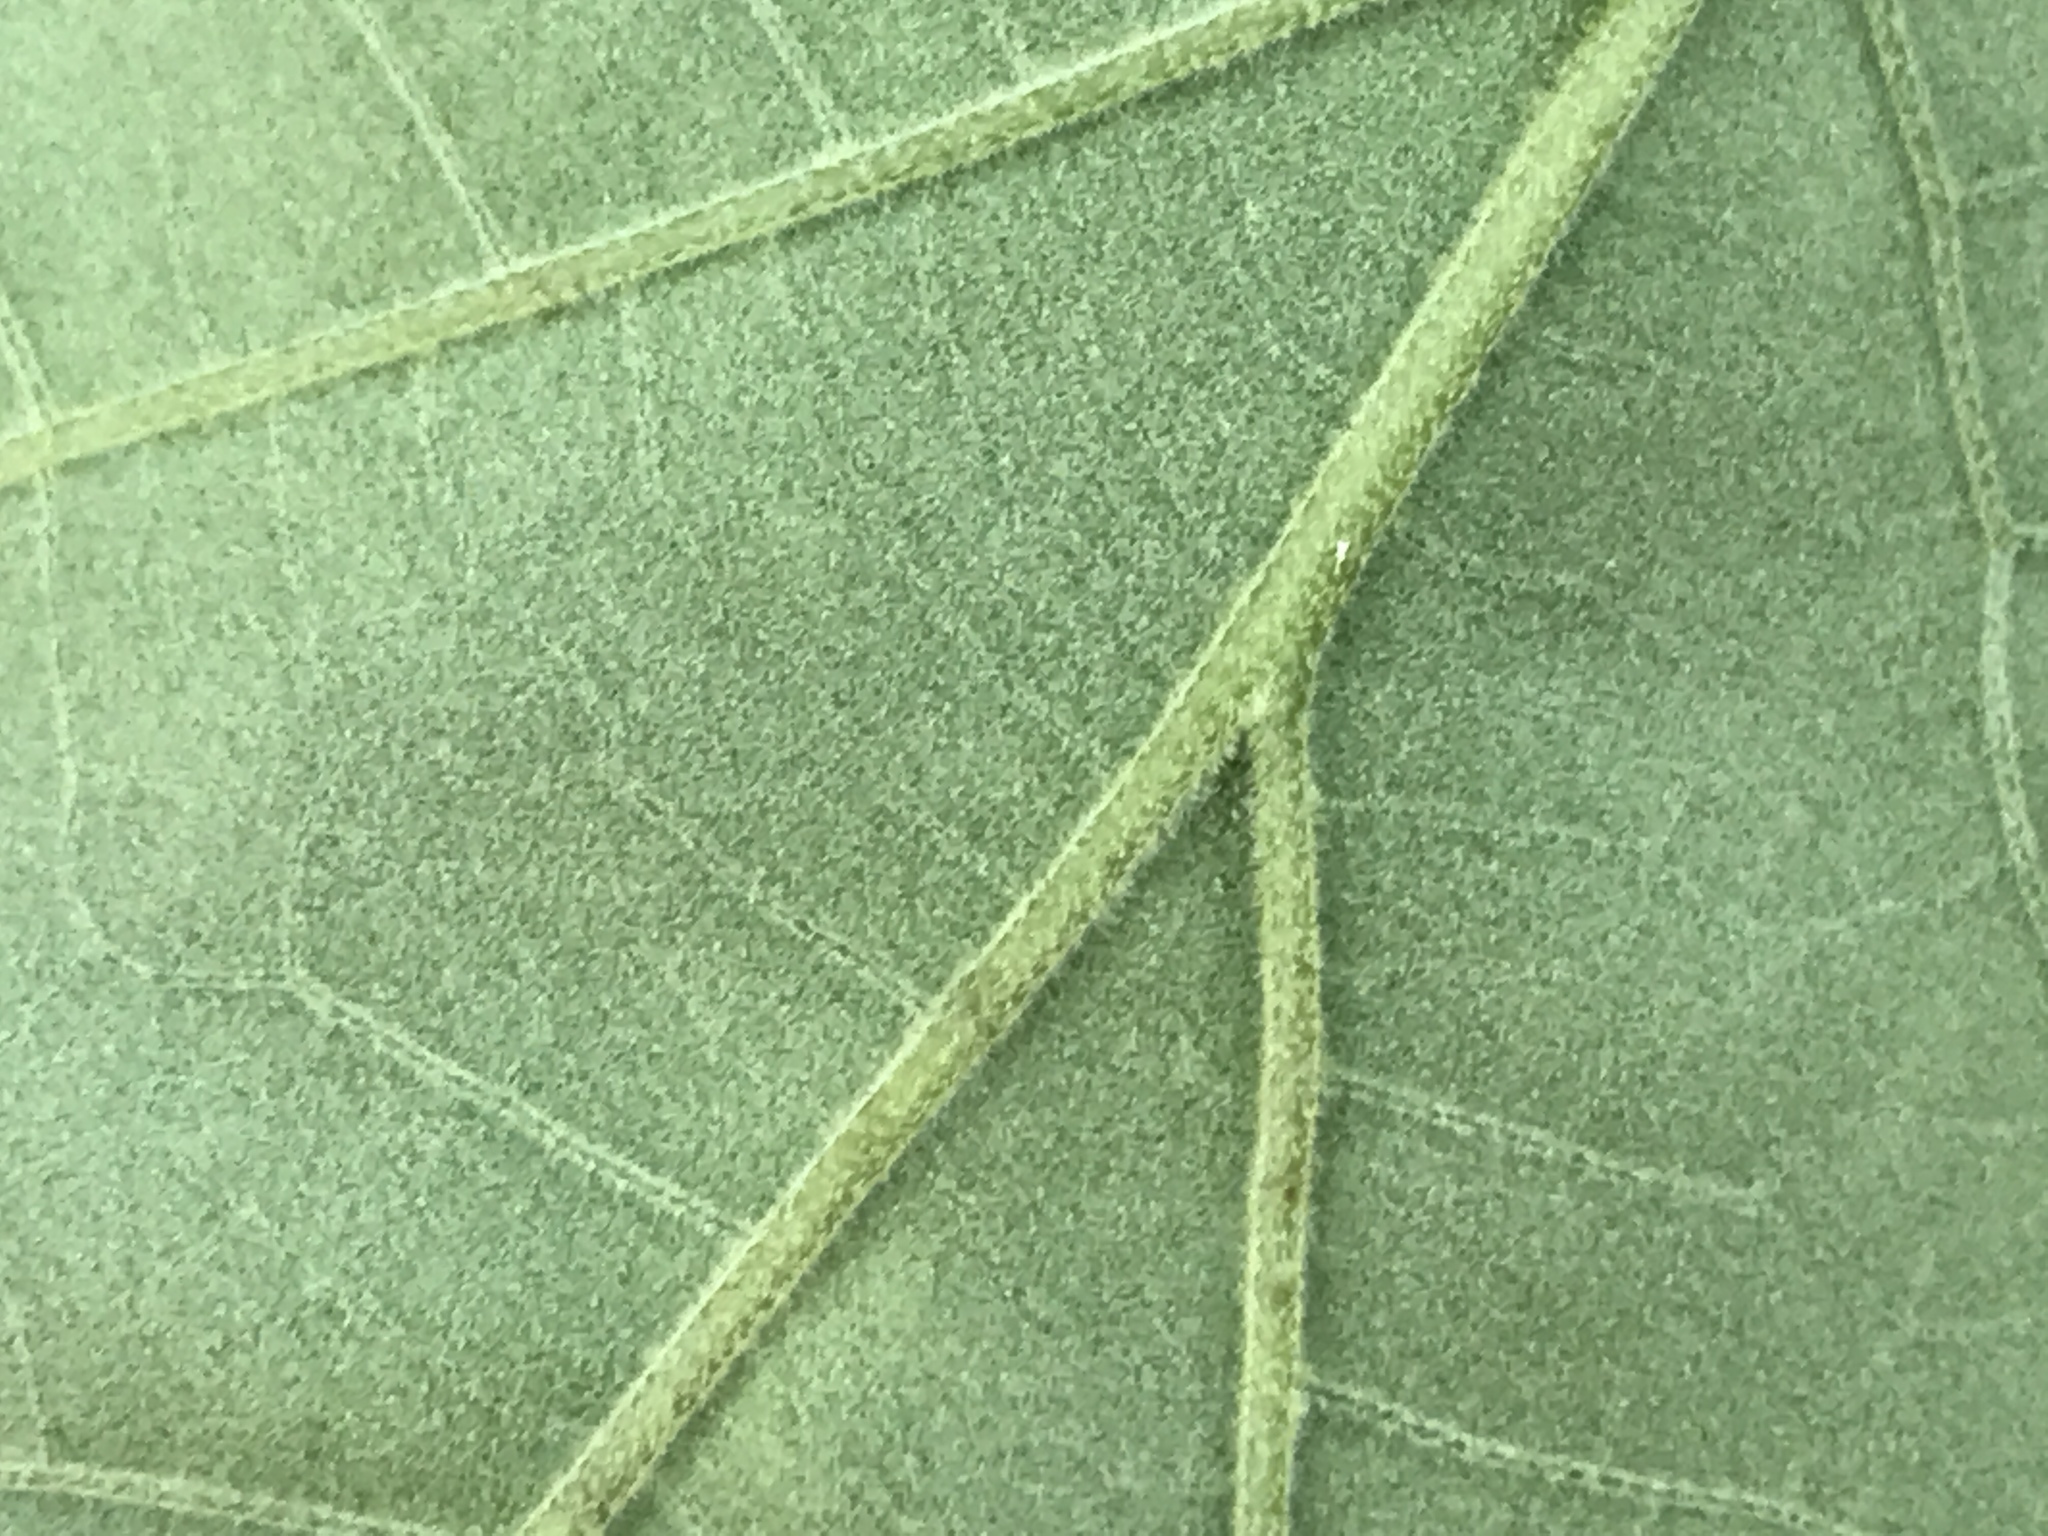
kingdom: Plantae
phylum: Tracheophyta
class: Magnoliopsida
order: Fagales
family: Fagaceae
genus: Quercus
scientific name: Quercus falcata
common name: Southern red oak
